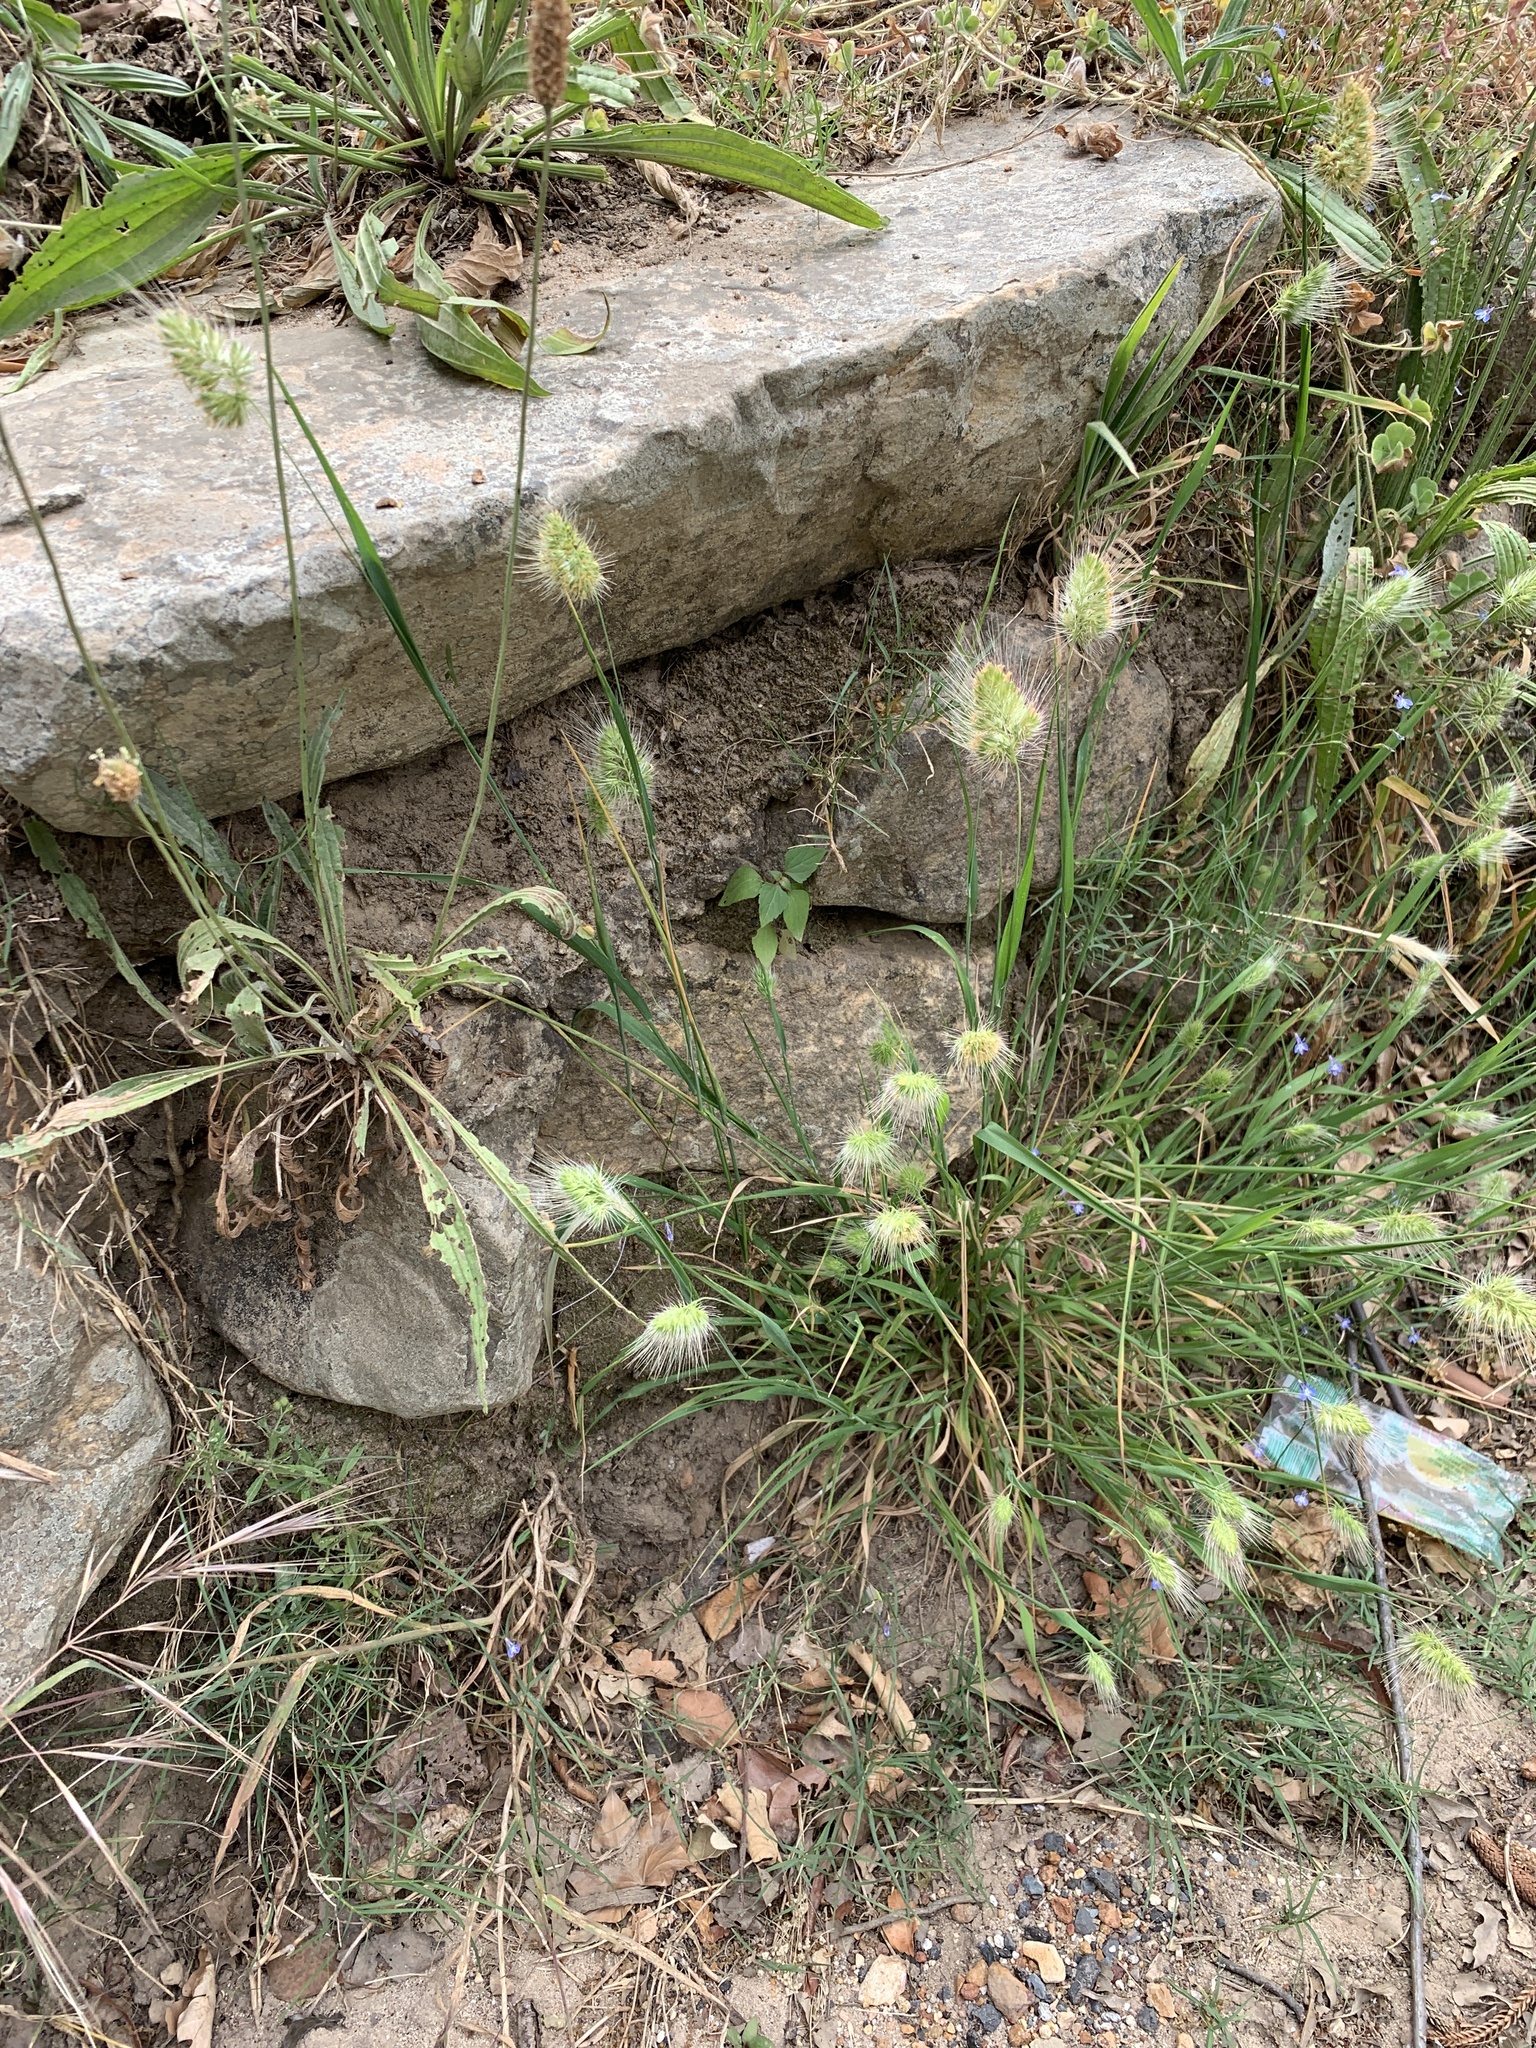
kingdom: Plantae
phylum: Tracheophyta
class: Liliopsida
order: Poales
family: Poaceae
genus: Cynosurus
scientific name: Cynosurus echinatus
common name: Rough dog's-tail
